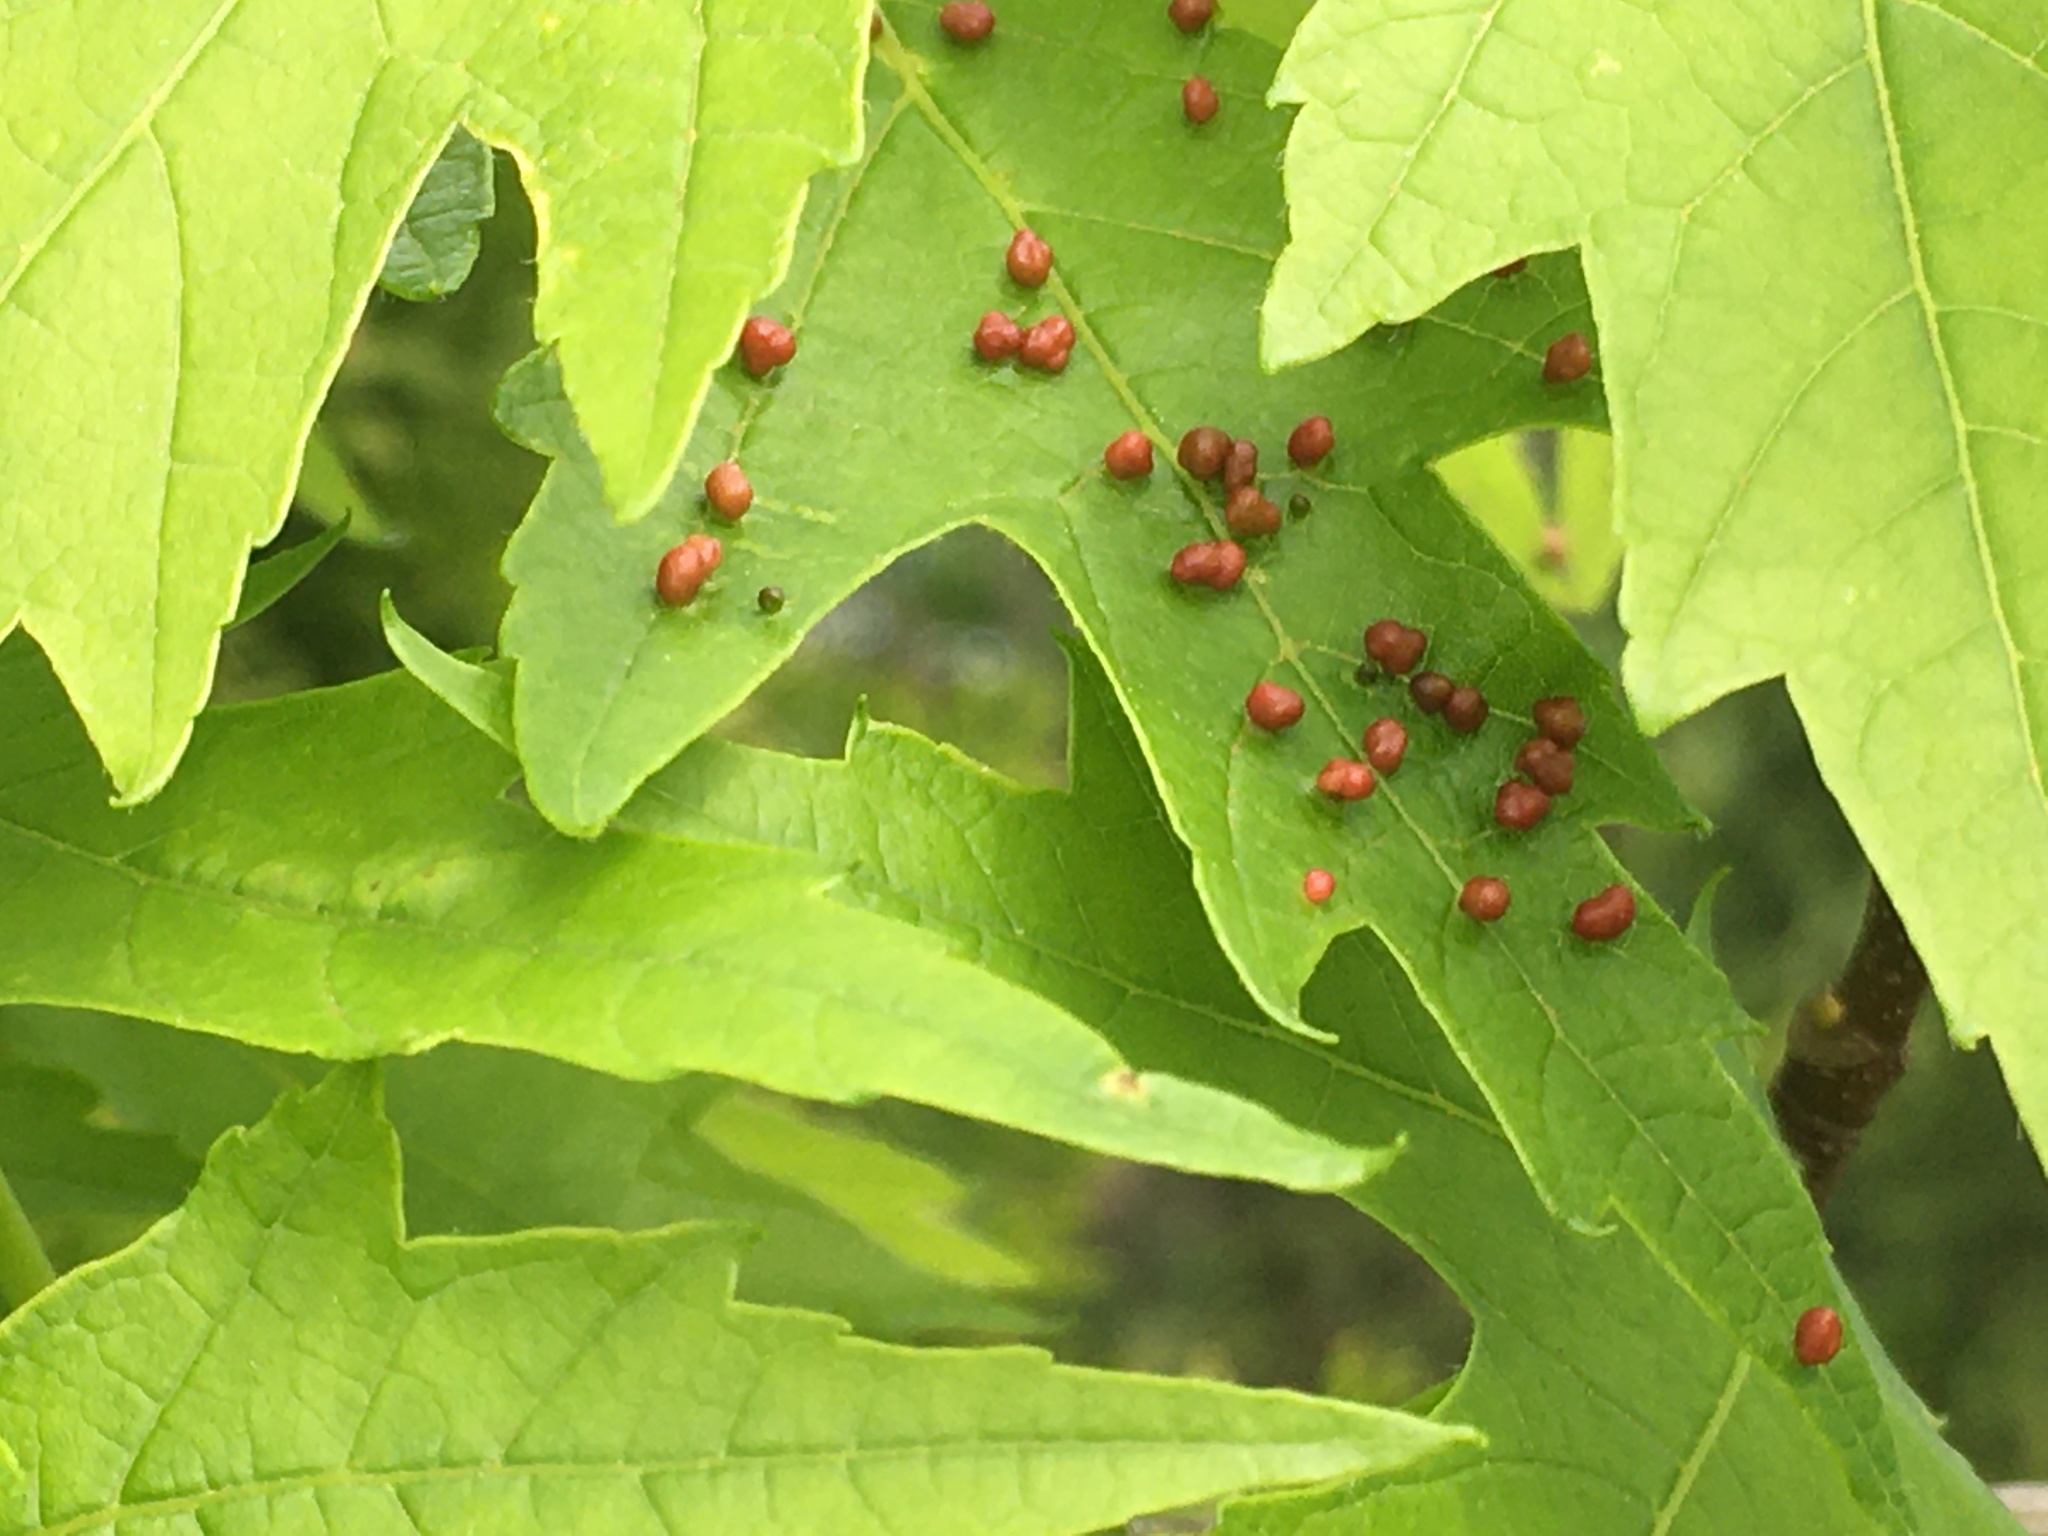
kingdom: Animalia
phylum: Arthropoda
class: Arachnida
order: Trombidiformes
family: Eriophyidae
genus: Vasates
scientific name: Vasates quadripedes
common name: Maple bladder gall mite
